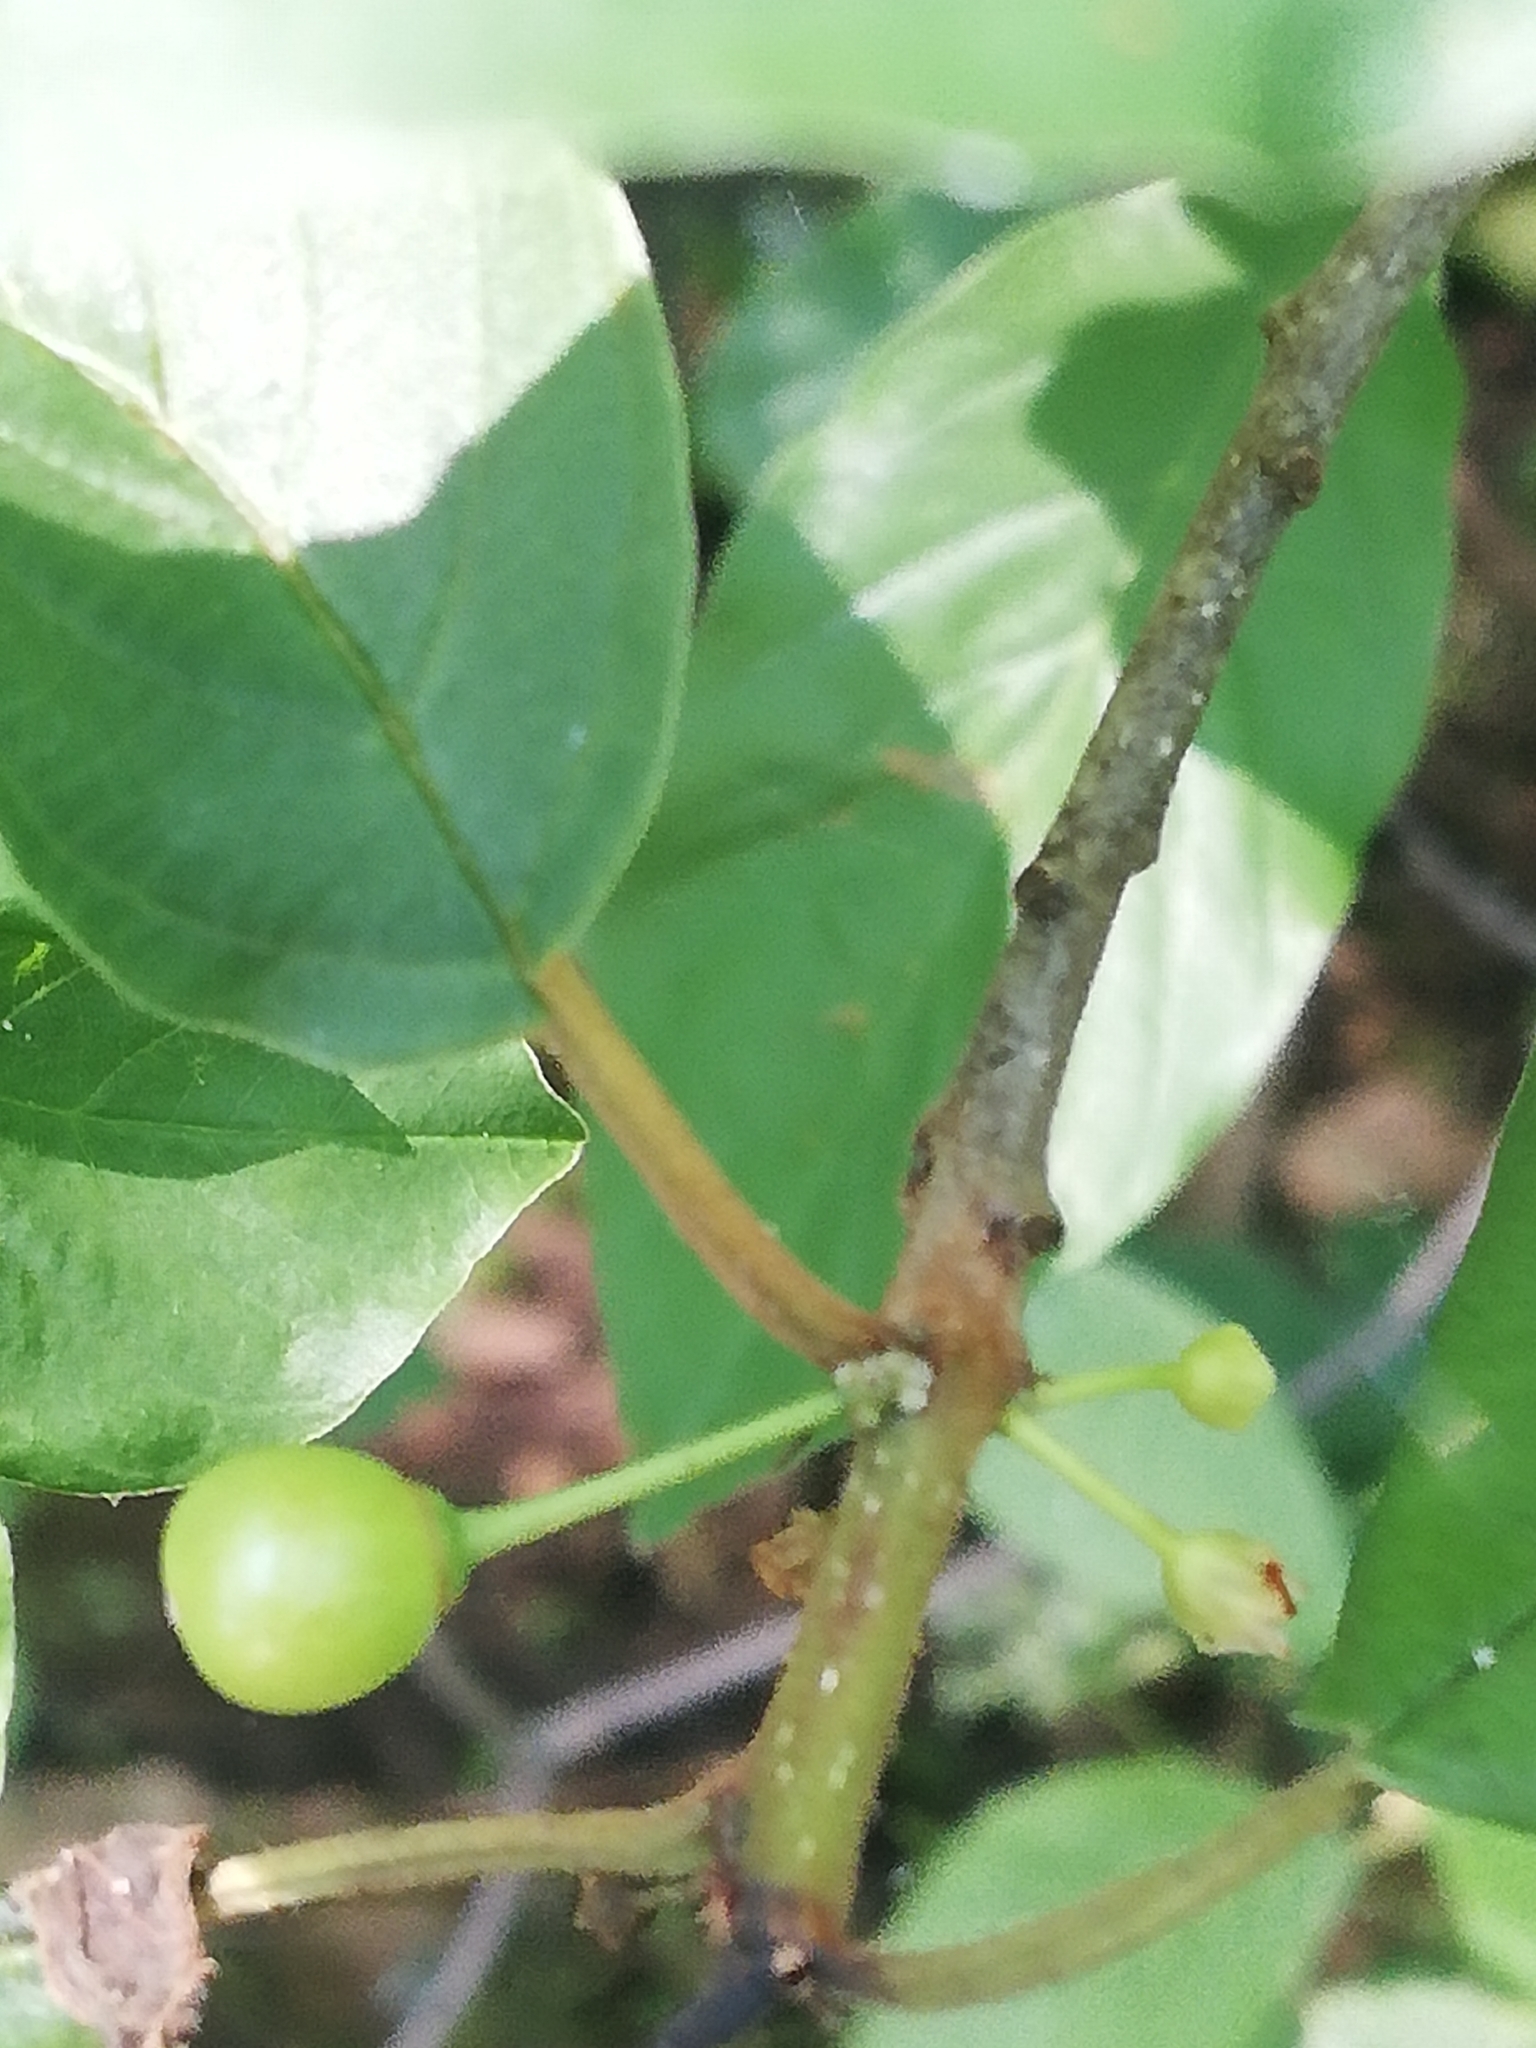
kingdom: Plantae
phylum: Tracheophyta
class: Magnoliopsida
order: Rosales
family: Rhamnaceae
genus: Frangula
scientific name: Frangula alnus
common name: Alder buckthorn
